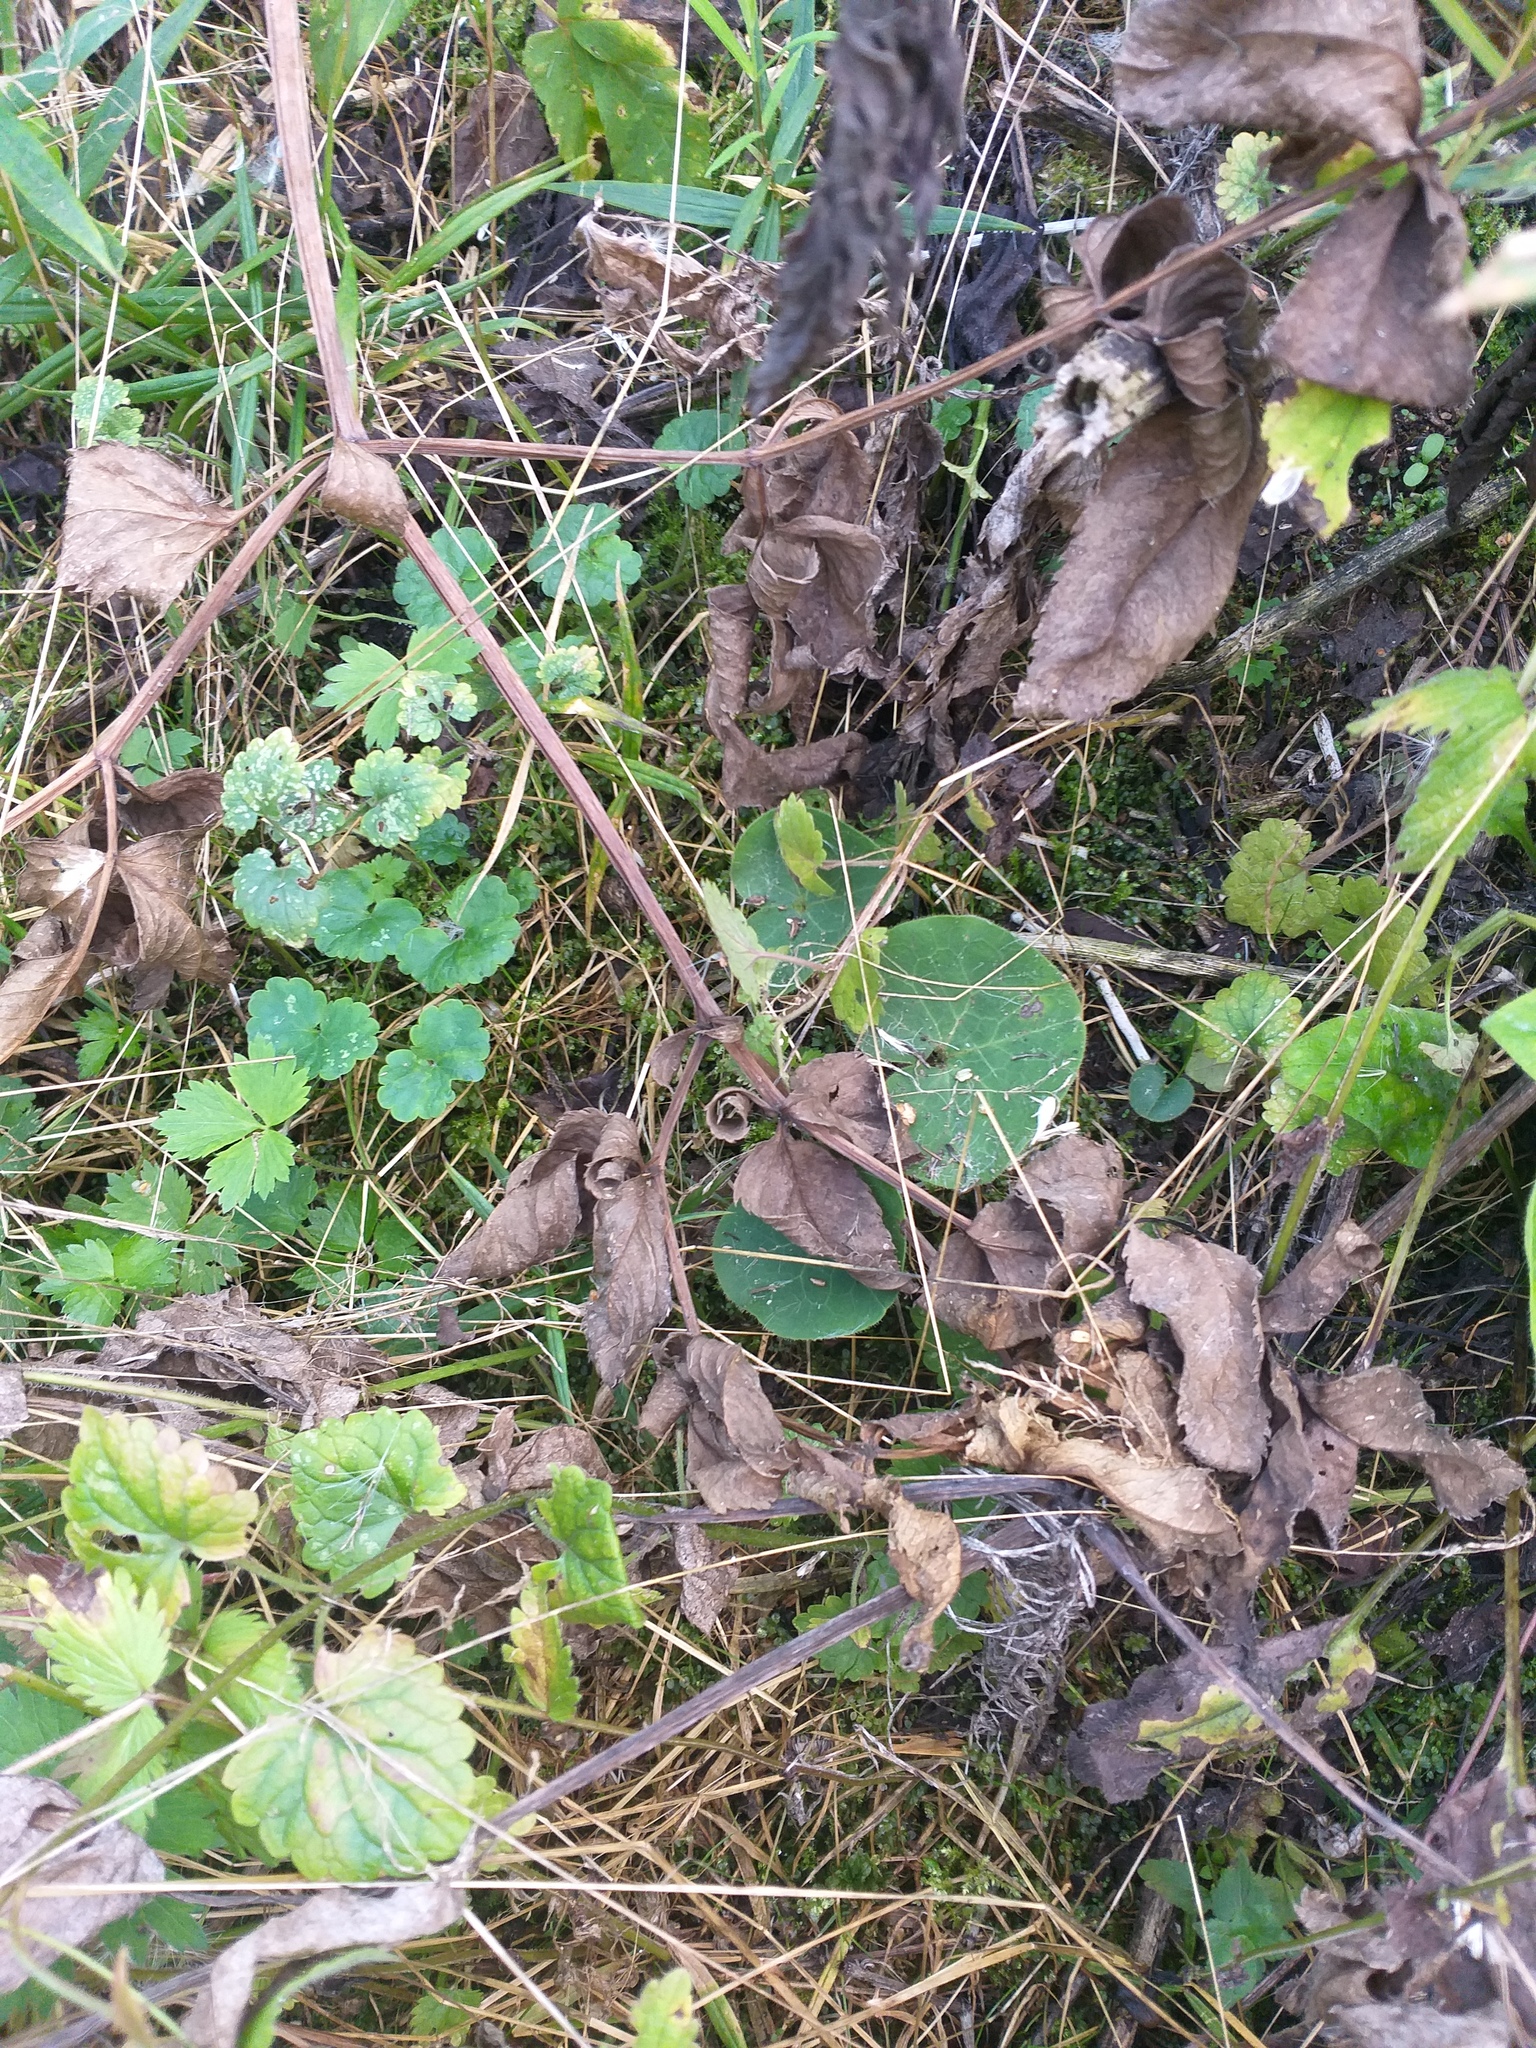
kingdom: Plantae
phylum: Tracheophyta
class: Magnoliopsida
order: Piperales
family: Aristolochiaceae
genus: Asarum
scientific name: Asarum europaeum
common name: Asarabacca
